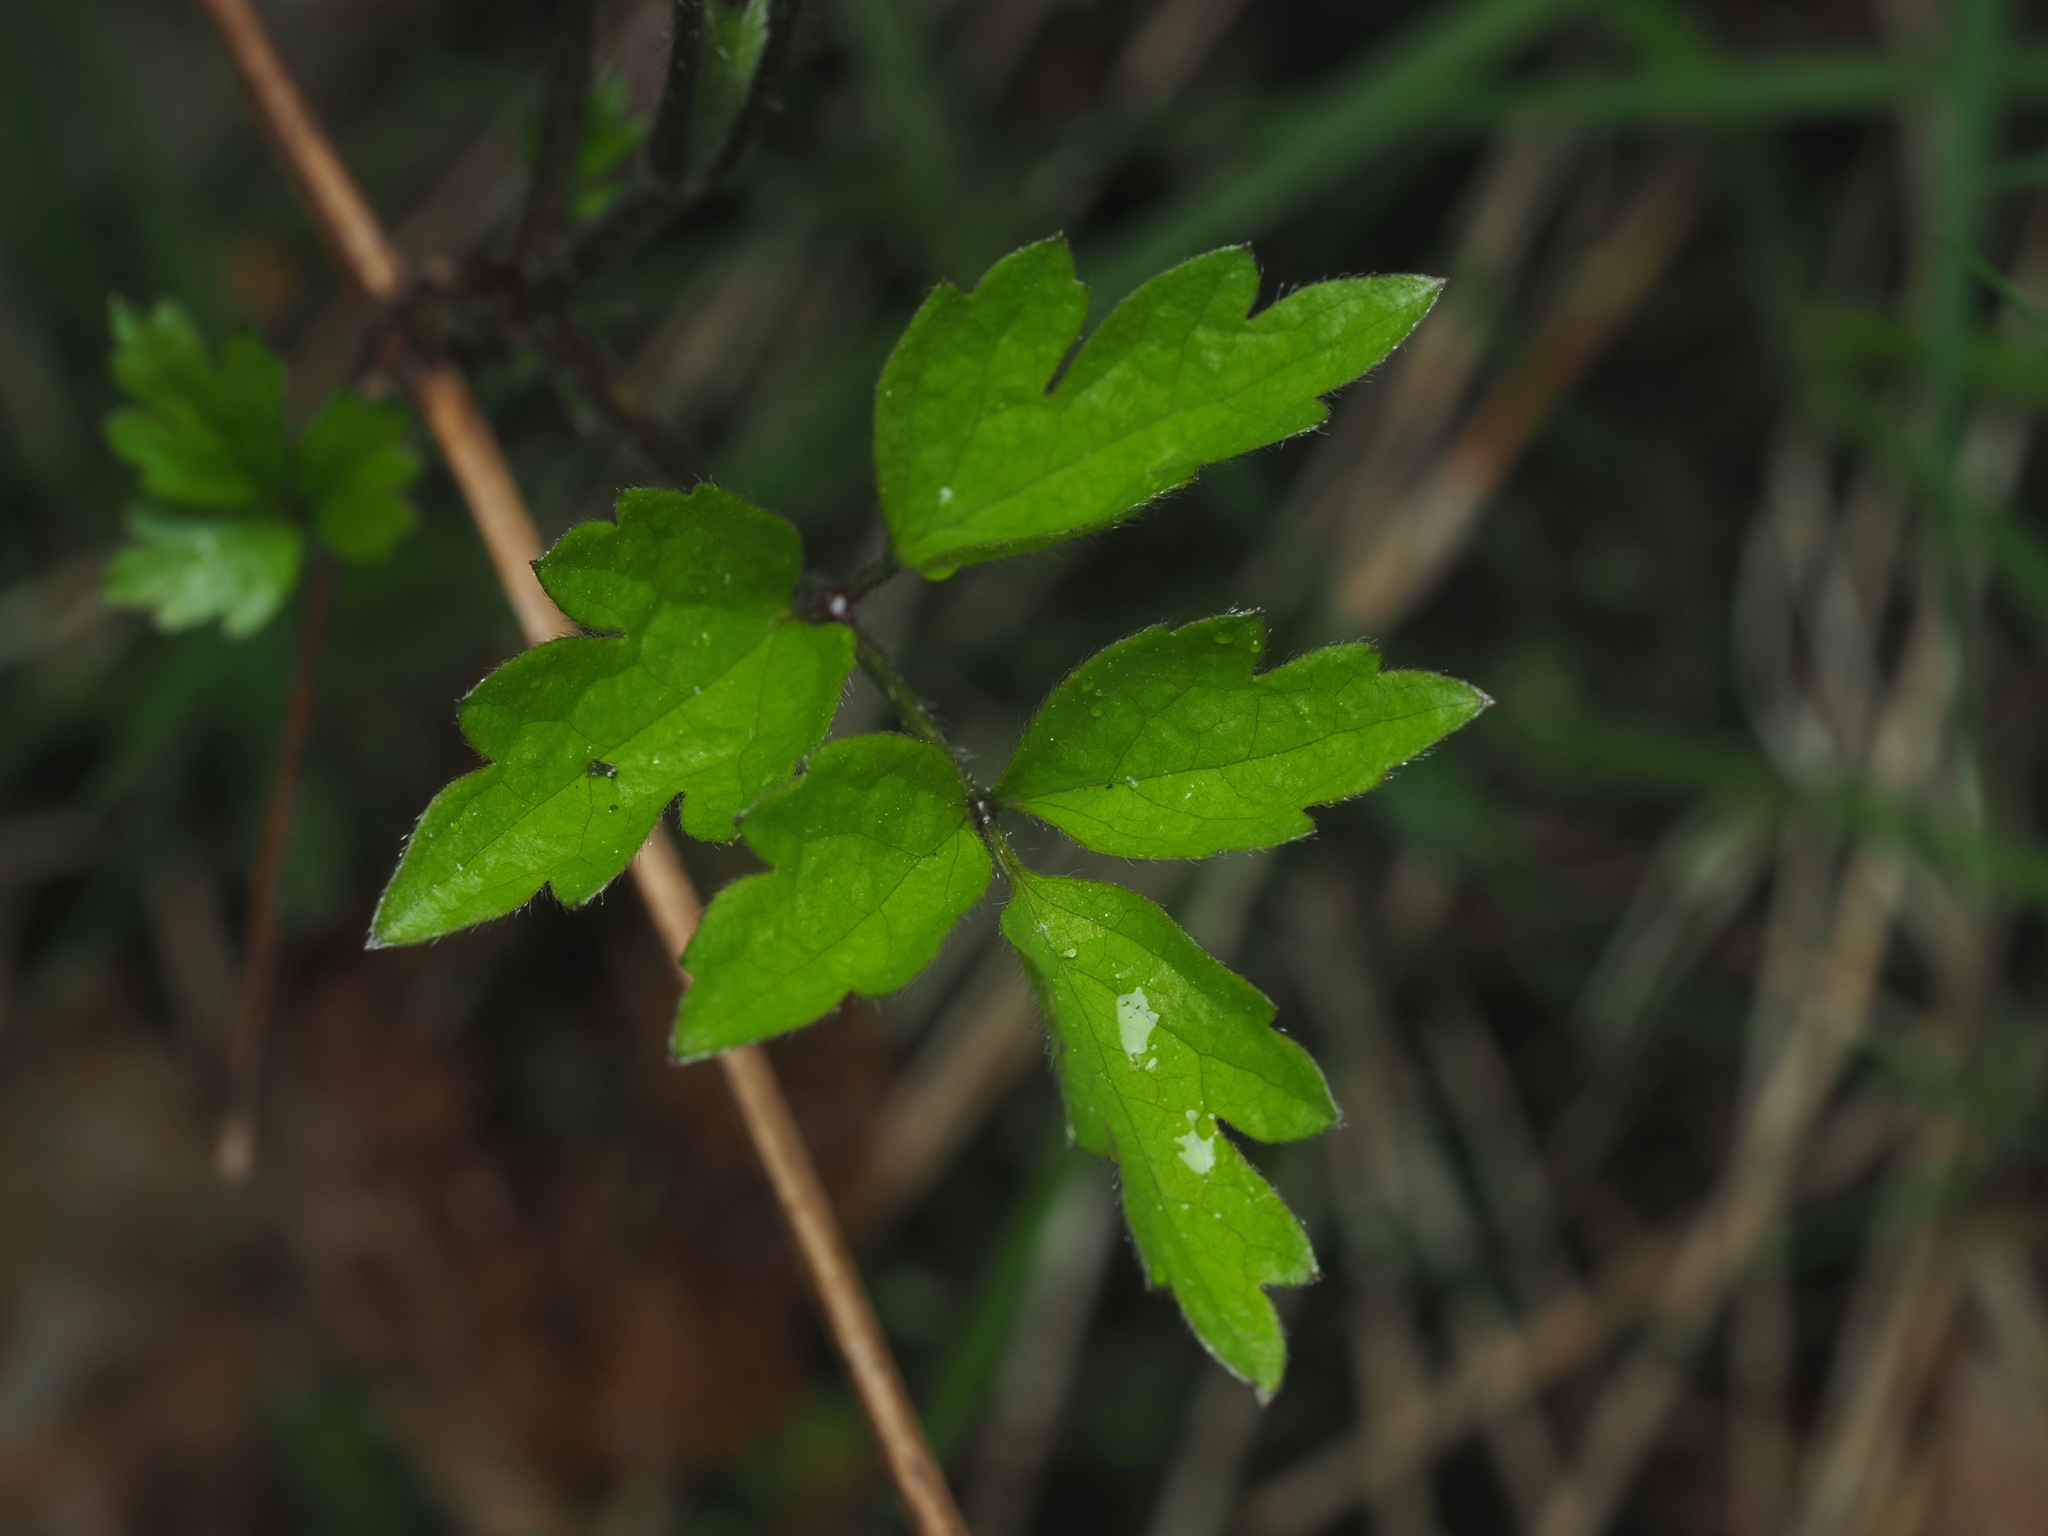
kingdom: Plantae
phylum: Tracheophyta
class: Magnoliopsida
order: Ranunculales
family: Ranunculaceae
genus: Clematis
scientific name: Clematis vitalba
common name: Evergreen clematis
